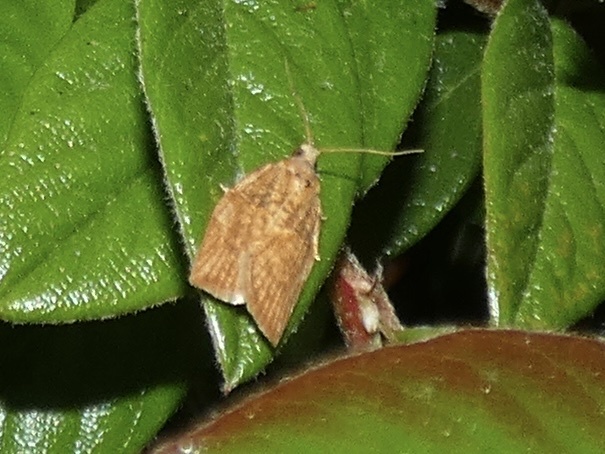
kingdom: Animalia
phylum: Arthropoda
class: Insecta
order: Lepidoptera
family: Tortricidae
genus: Epiphyas
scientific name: Epiphyas postvittana
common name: Light brown apple moth
